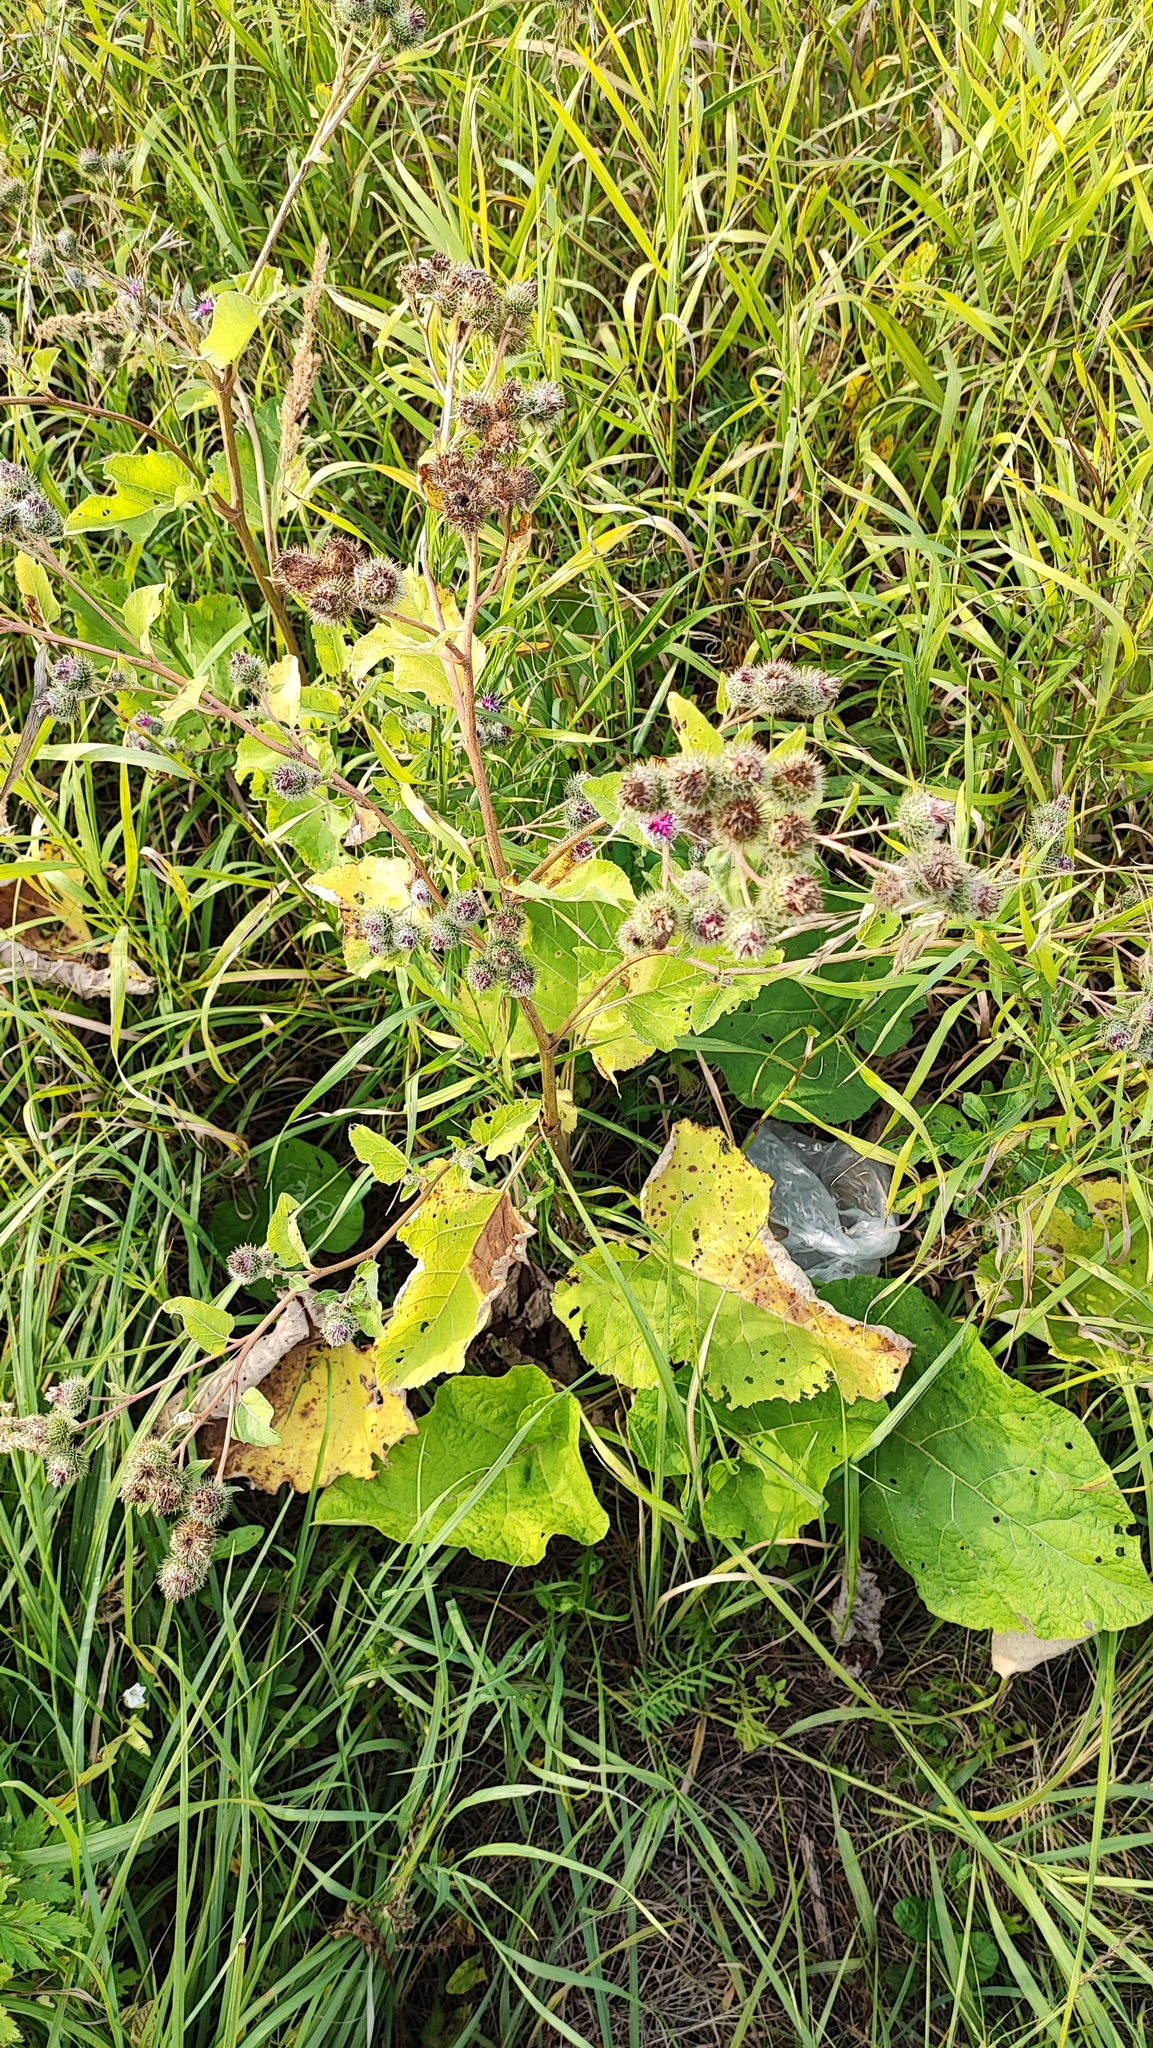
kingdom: Plantae
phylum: Tracheophyta
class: Magnoliopsida
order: Asterales
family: Asteraceae
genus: Arctium
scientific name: Arctium tomentosum
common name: Woolly burdock
